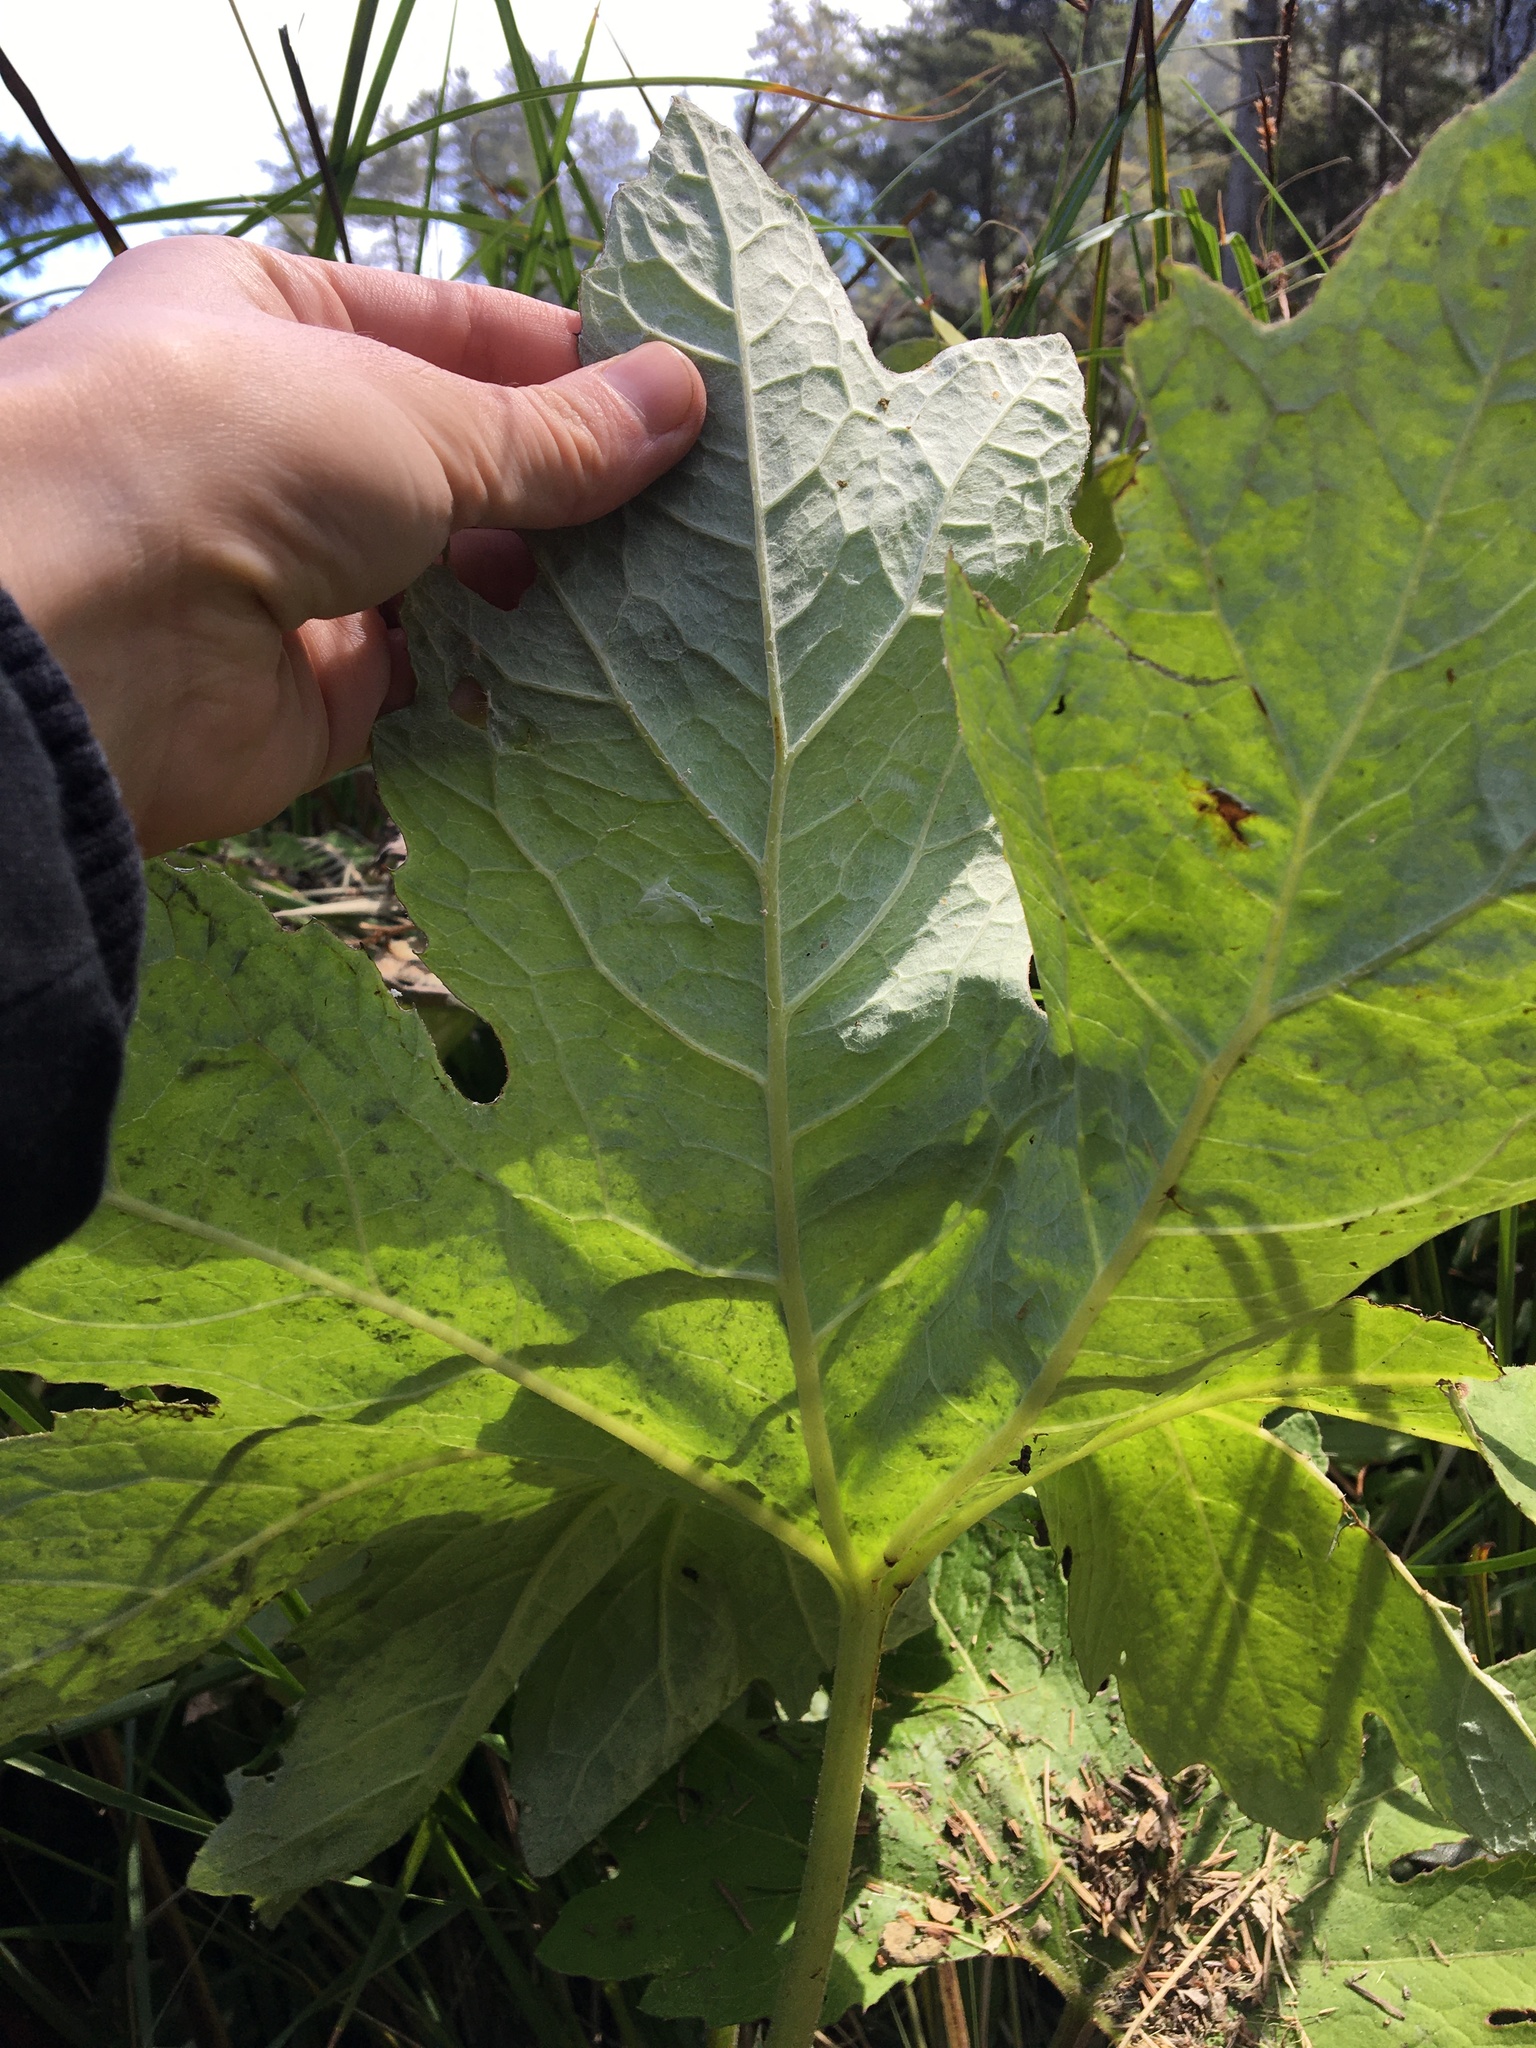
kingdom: Plantae
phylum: Tracheophyta
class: Magnoliopsida
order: Asterales
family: Asteraceae
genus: Petasites
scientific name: Petasites frigidus
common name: Arctic butterbur
